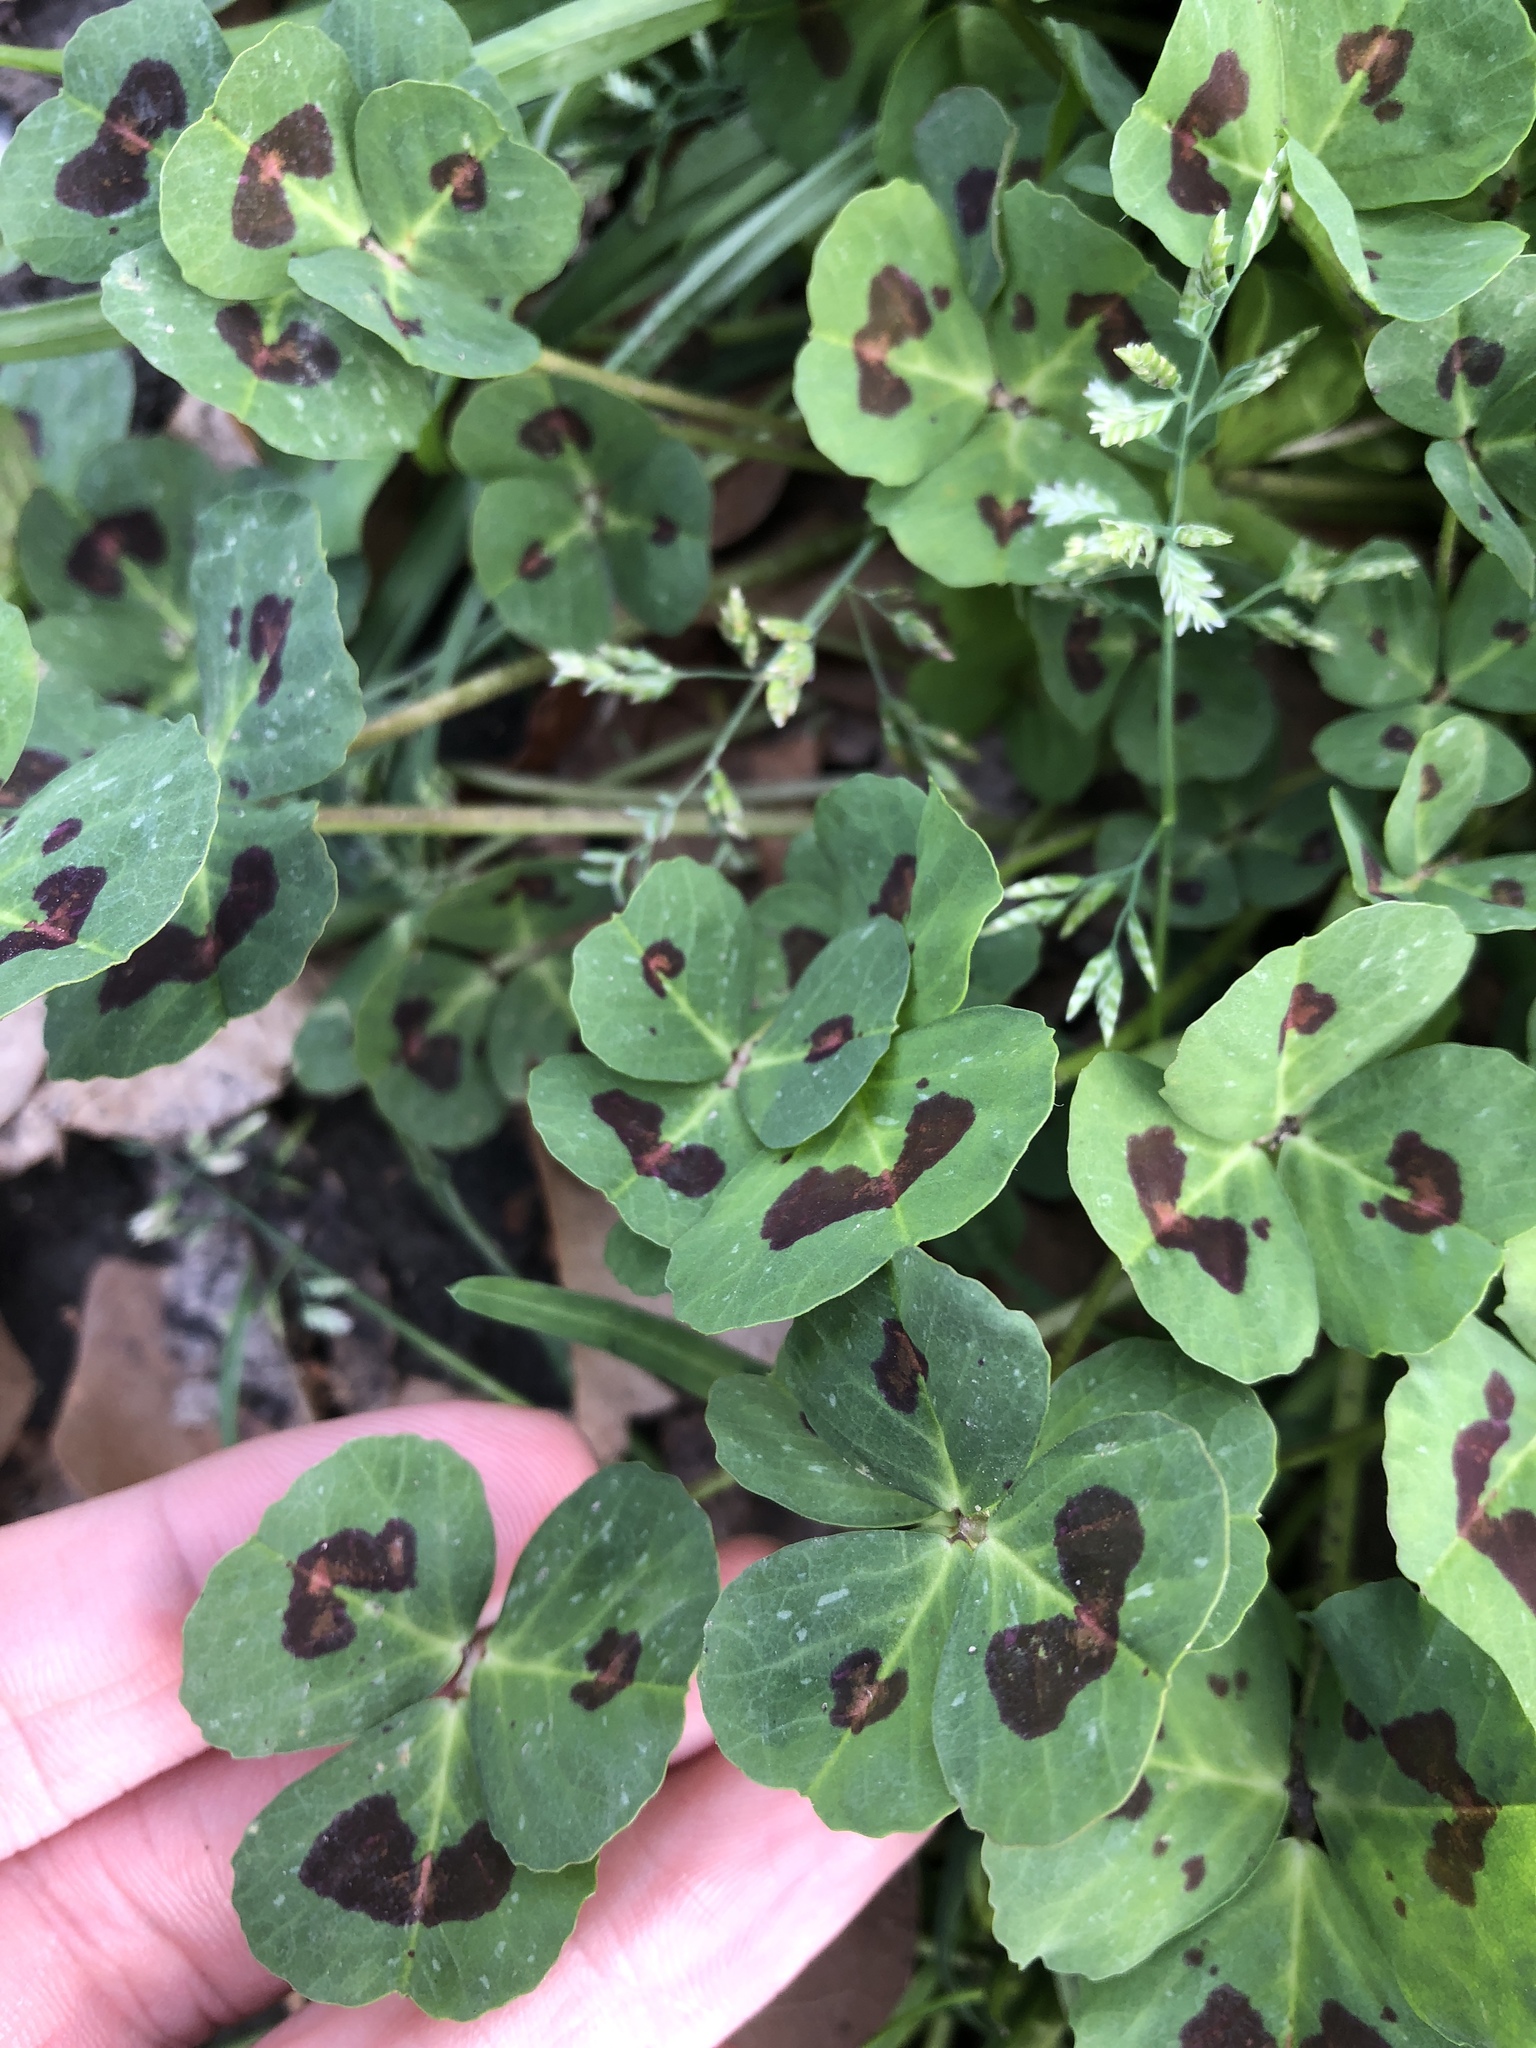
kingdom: Plantae
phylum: Tracheophyta
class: Magnoliopsida
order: Fabales
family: Fabaceae
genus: Medicago
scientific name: Medicago arabica
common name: Spotted medick
